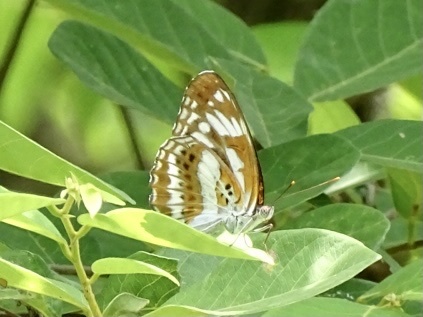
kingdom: Animalia
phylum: Arthropoda
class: Insecta
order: Lepidoptera
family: Nymphalidae
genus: Limenitis
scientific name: Limenitis sulpitia
